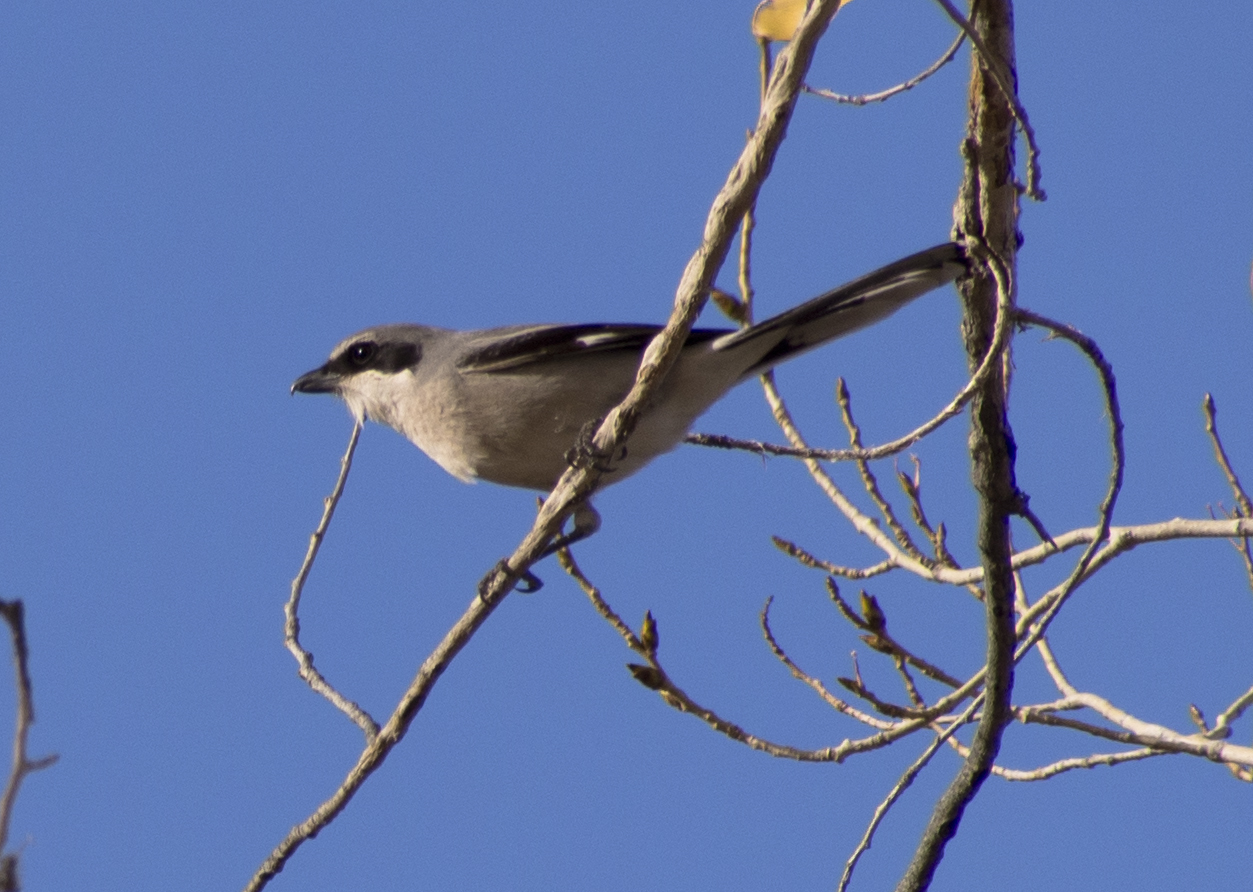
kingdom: Animalia
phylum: Chordata
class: Aves
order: Passeriformes
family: Laniidae
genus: Lanius
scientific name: Lanius ludovicianus
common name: Loggerhead shrike
